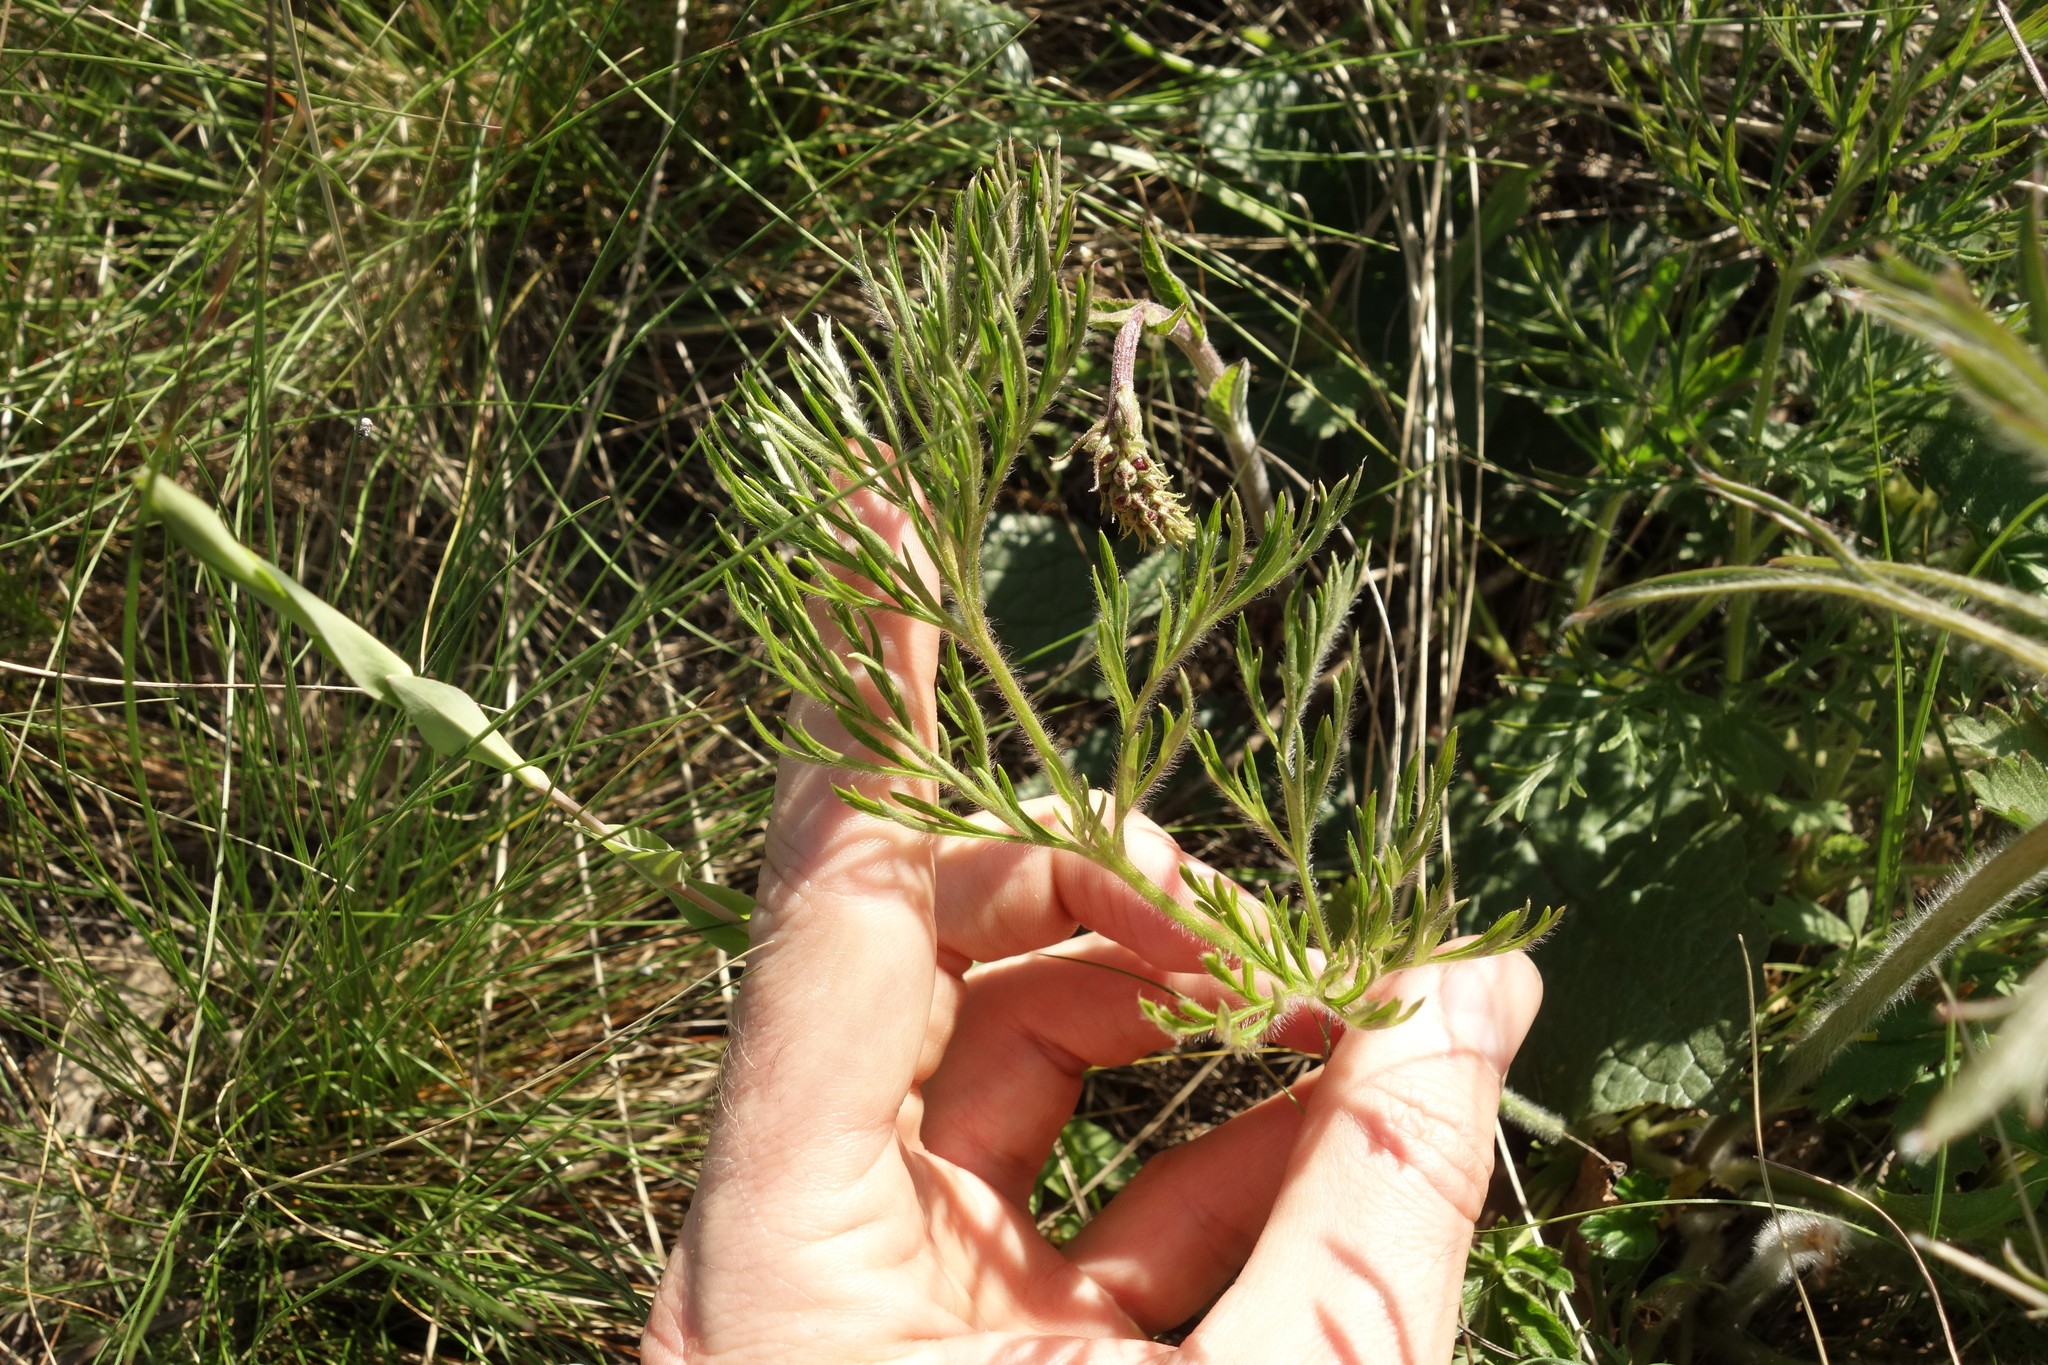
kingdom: Plantae
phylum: Tracheophyta
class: Magnoliopsida
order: Ranunculales
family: Ranunculaceae
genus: Pulsatilla
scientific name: Pulsatilla pratensis
